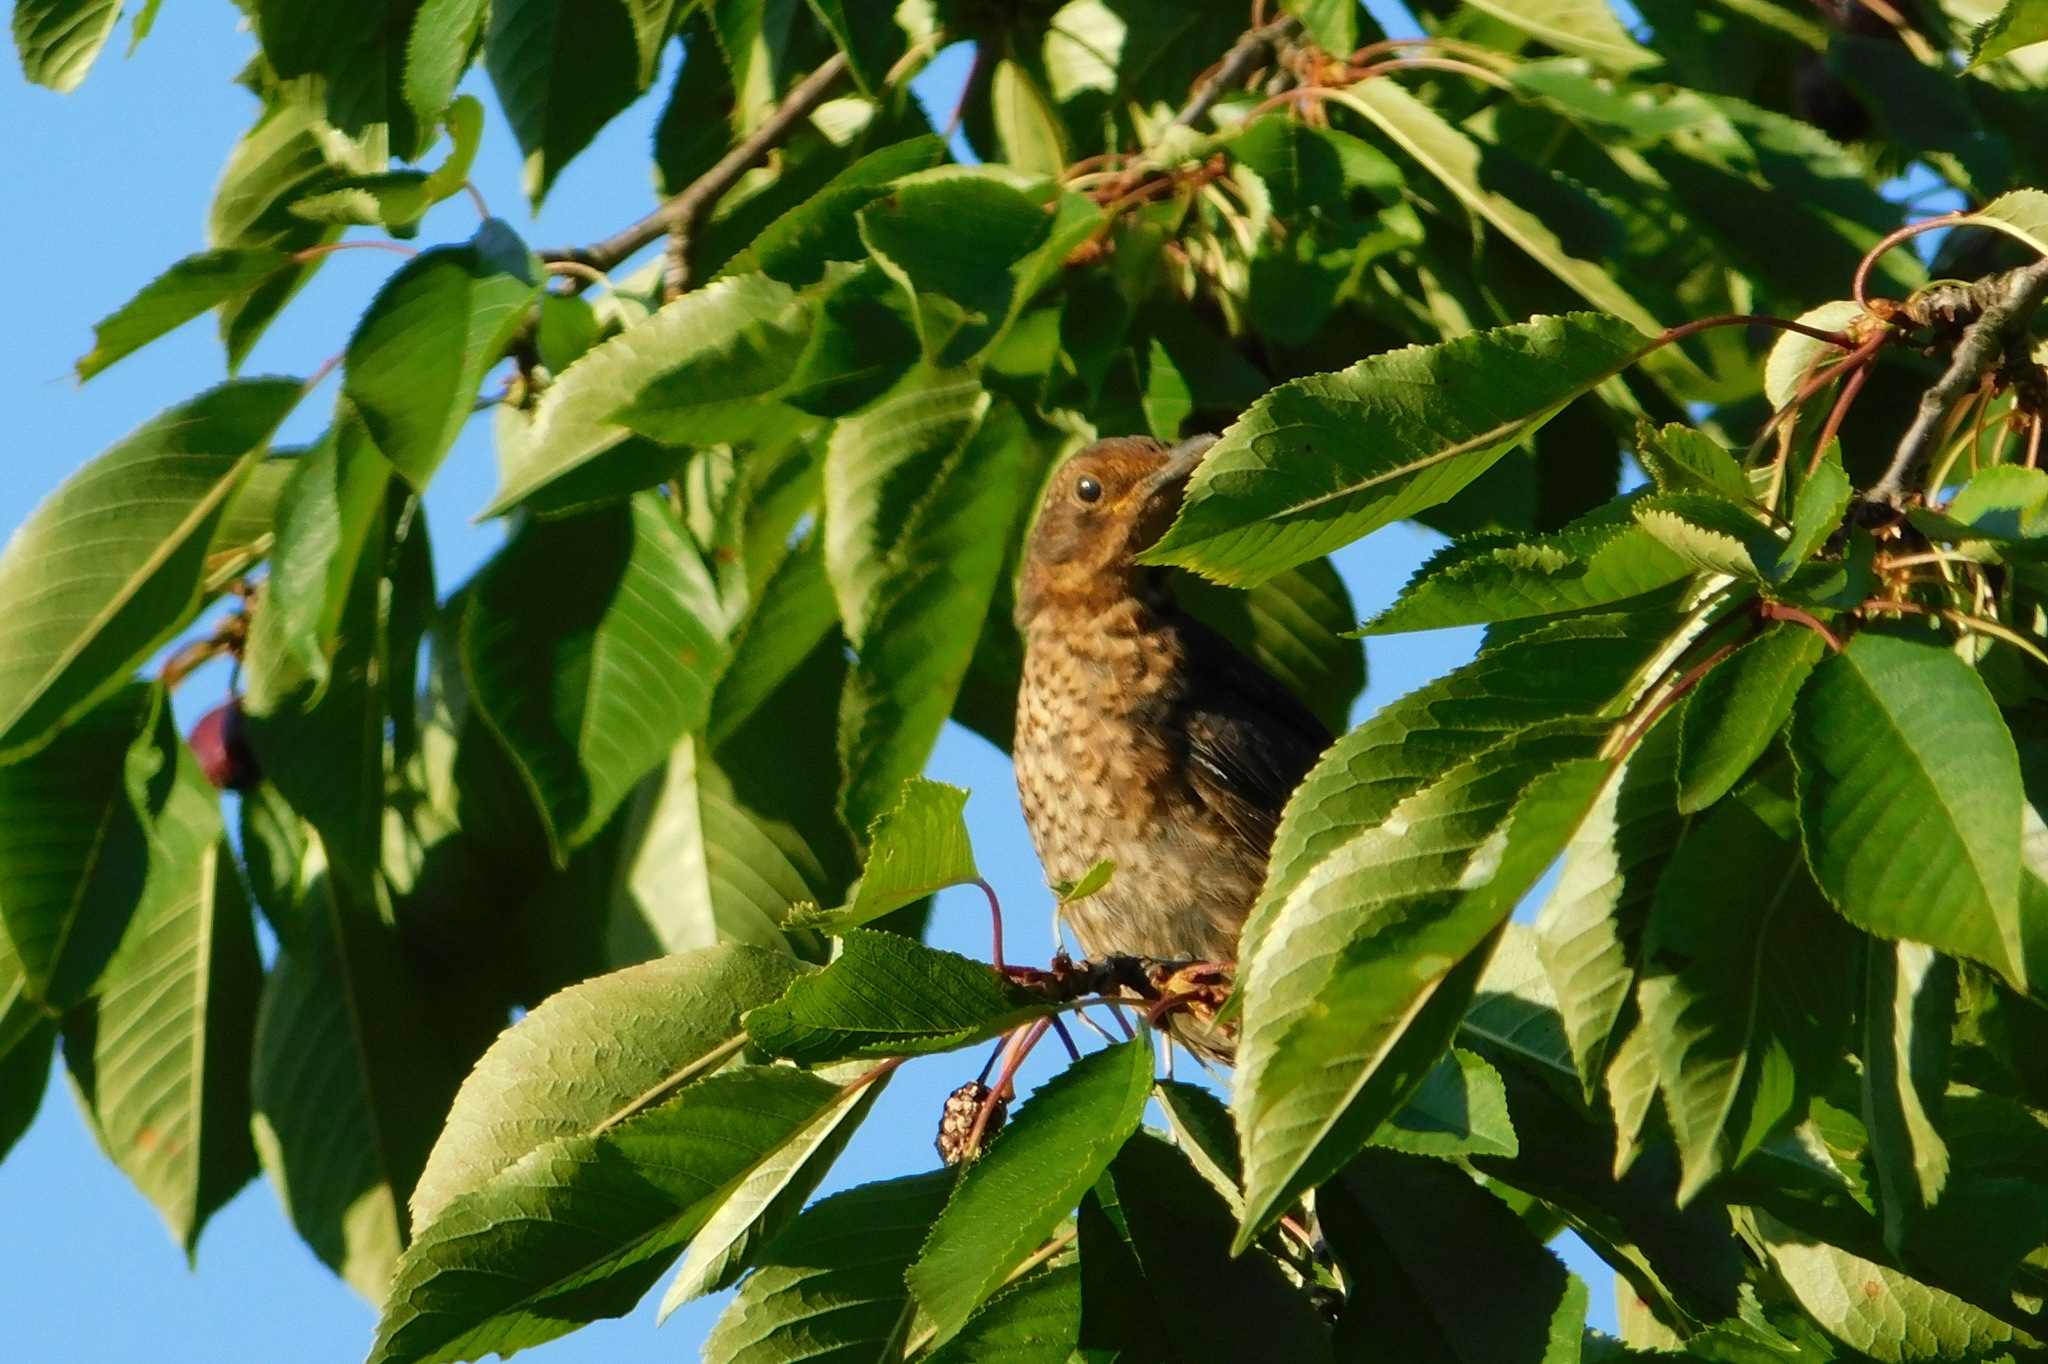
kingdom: Animalia
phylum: Chordata
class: Aves
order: Passeriformes
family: Turdidae
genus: Turdus
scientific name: Turdus merula
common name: Common blackbird
